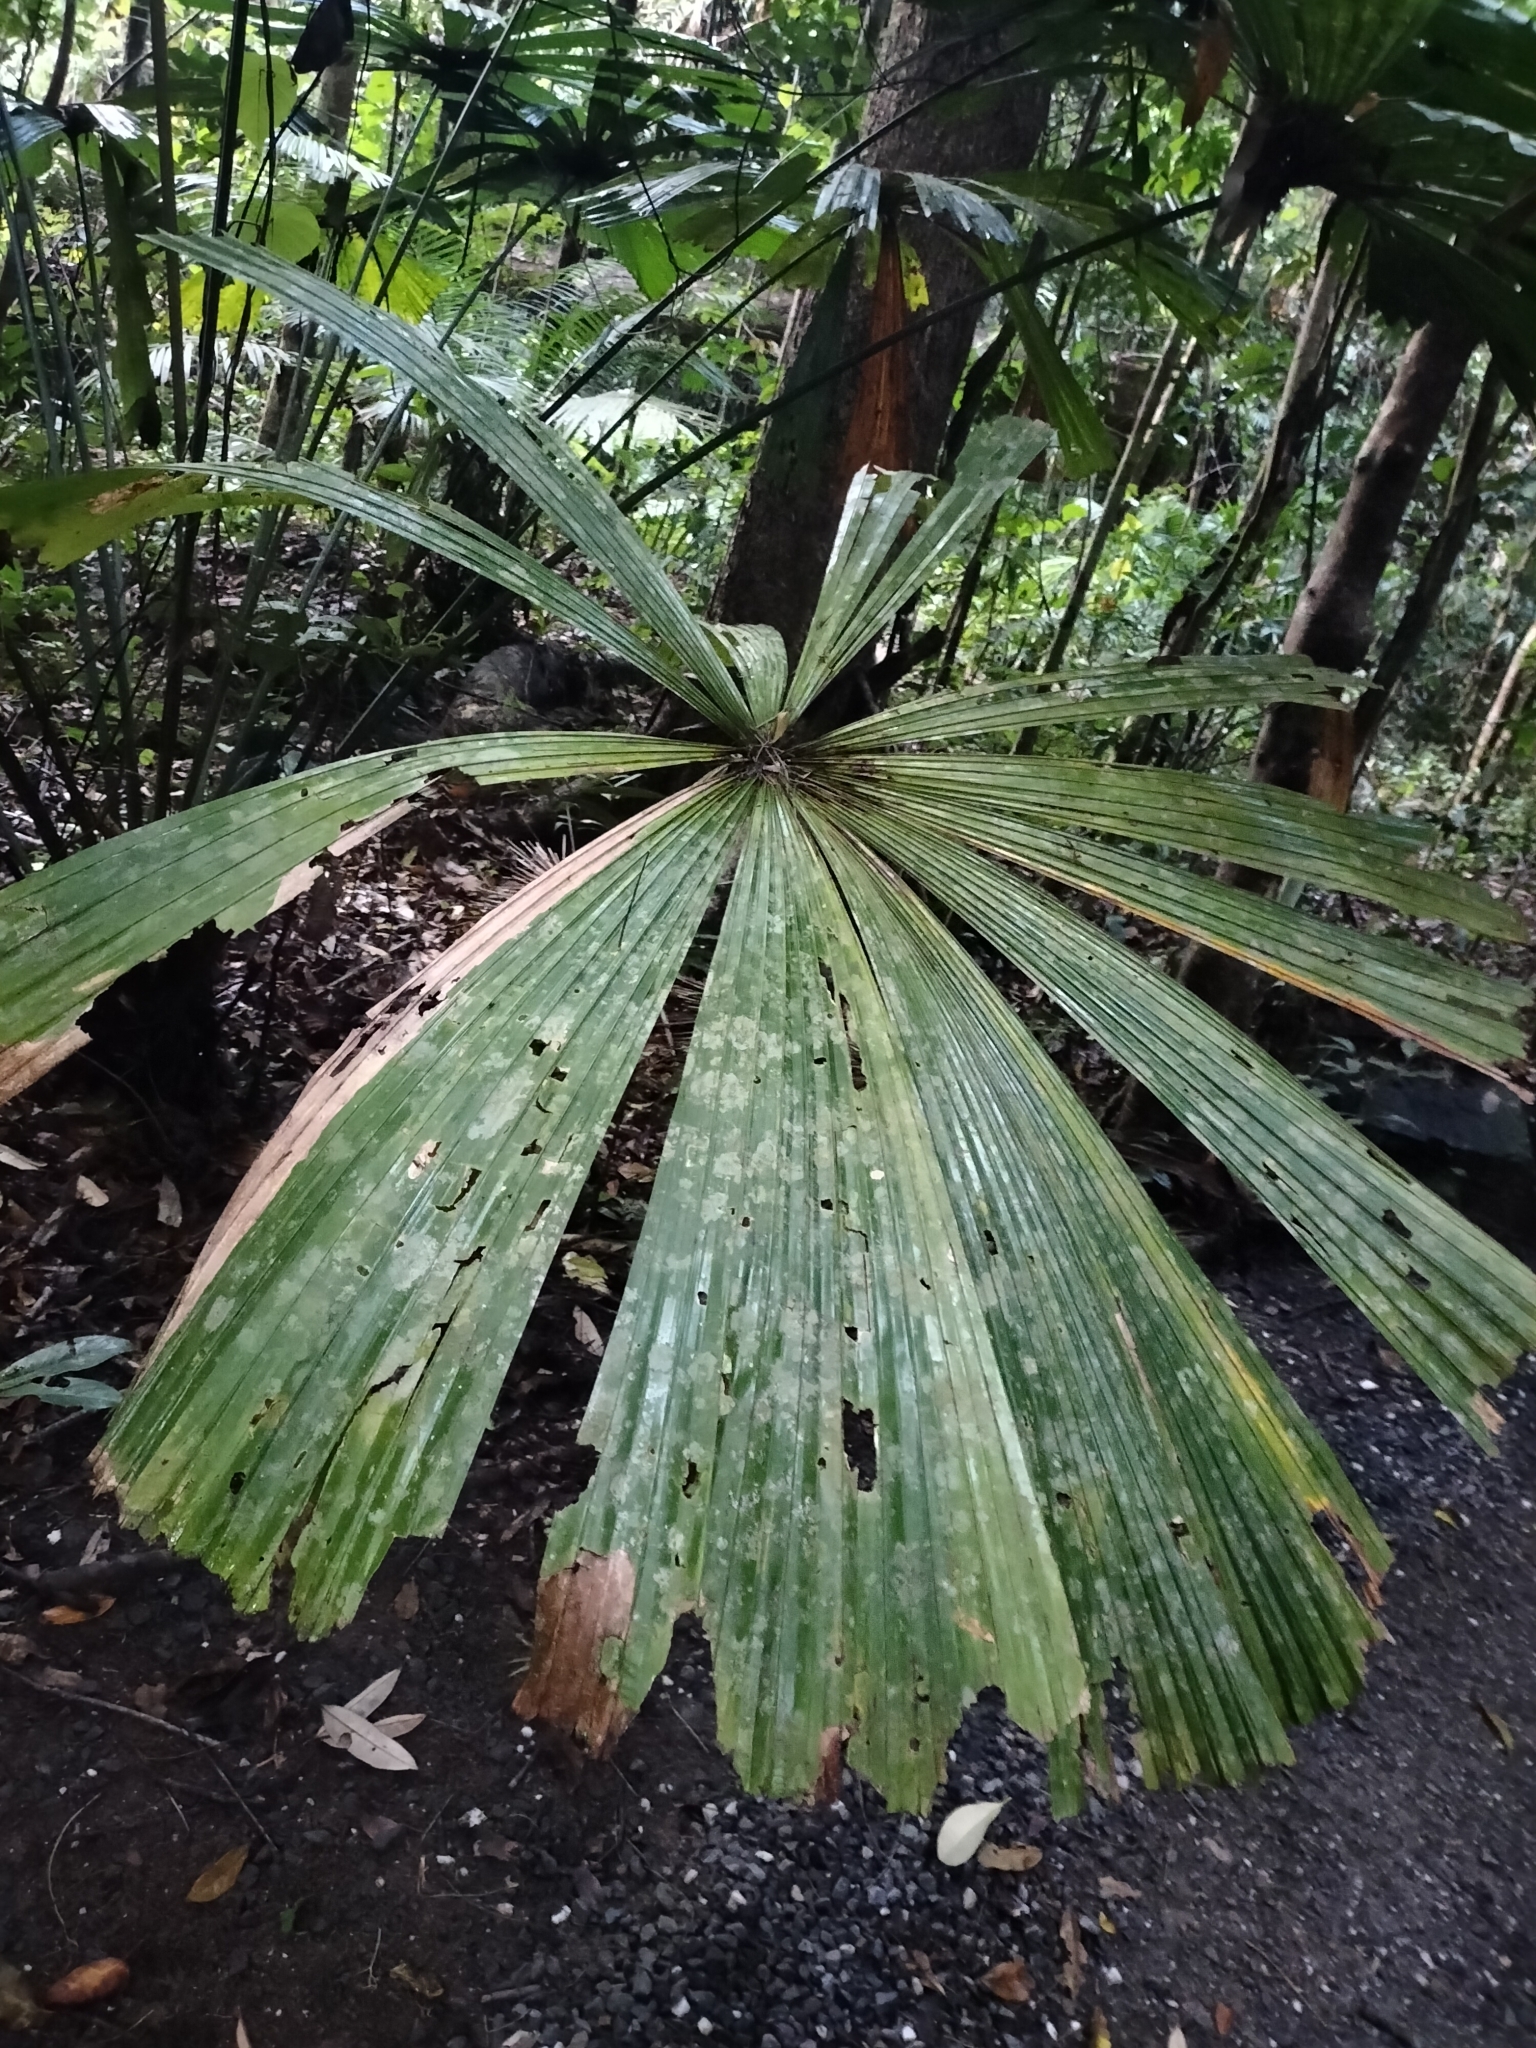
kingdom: Plantae
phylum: Tracheophyta
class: Liliopsida
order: Arecales
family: Arecaceae
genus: Licuala
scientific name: Licuala ramsayi
